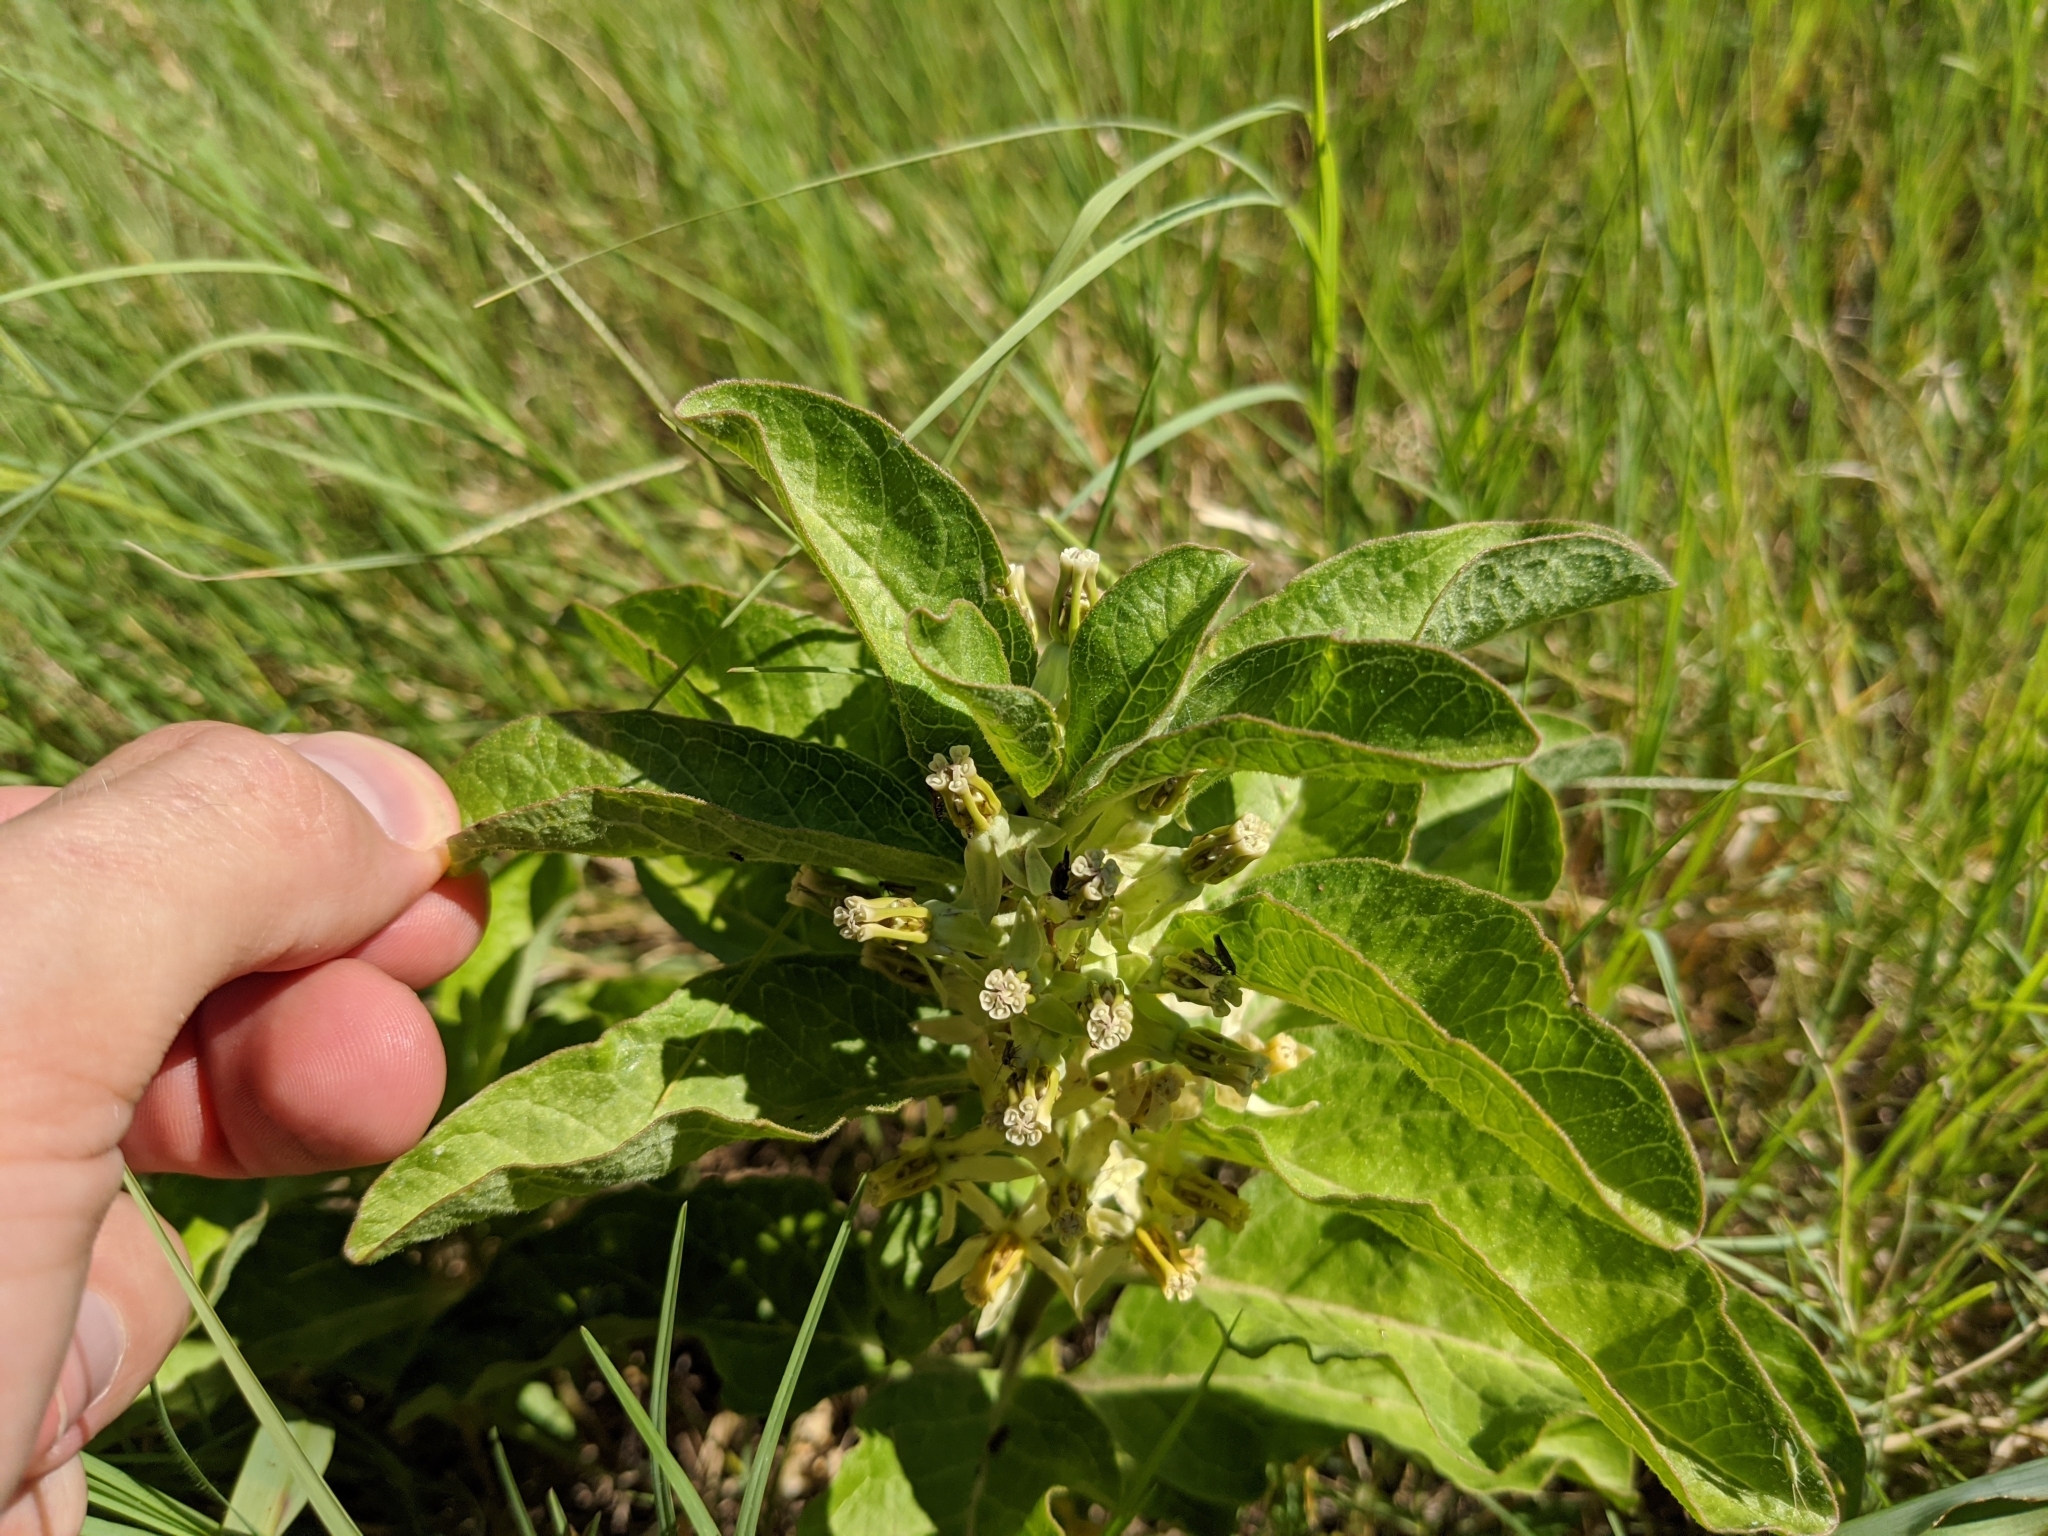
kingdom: Plantae
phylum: Tracheophyta
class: Magnoliopsida
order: Gentianales
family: Apocynaceae
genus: Asclepias
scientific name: Asclepias oenotheroides
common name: Zizotes milkweed
